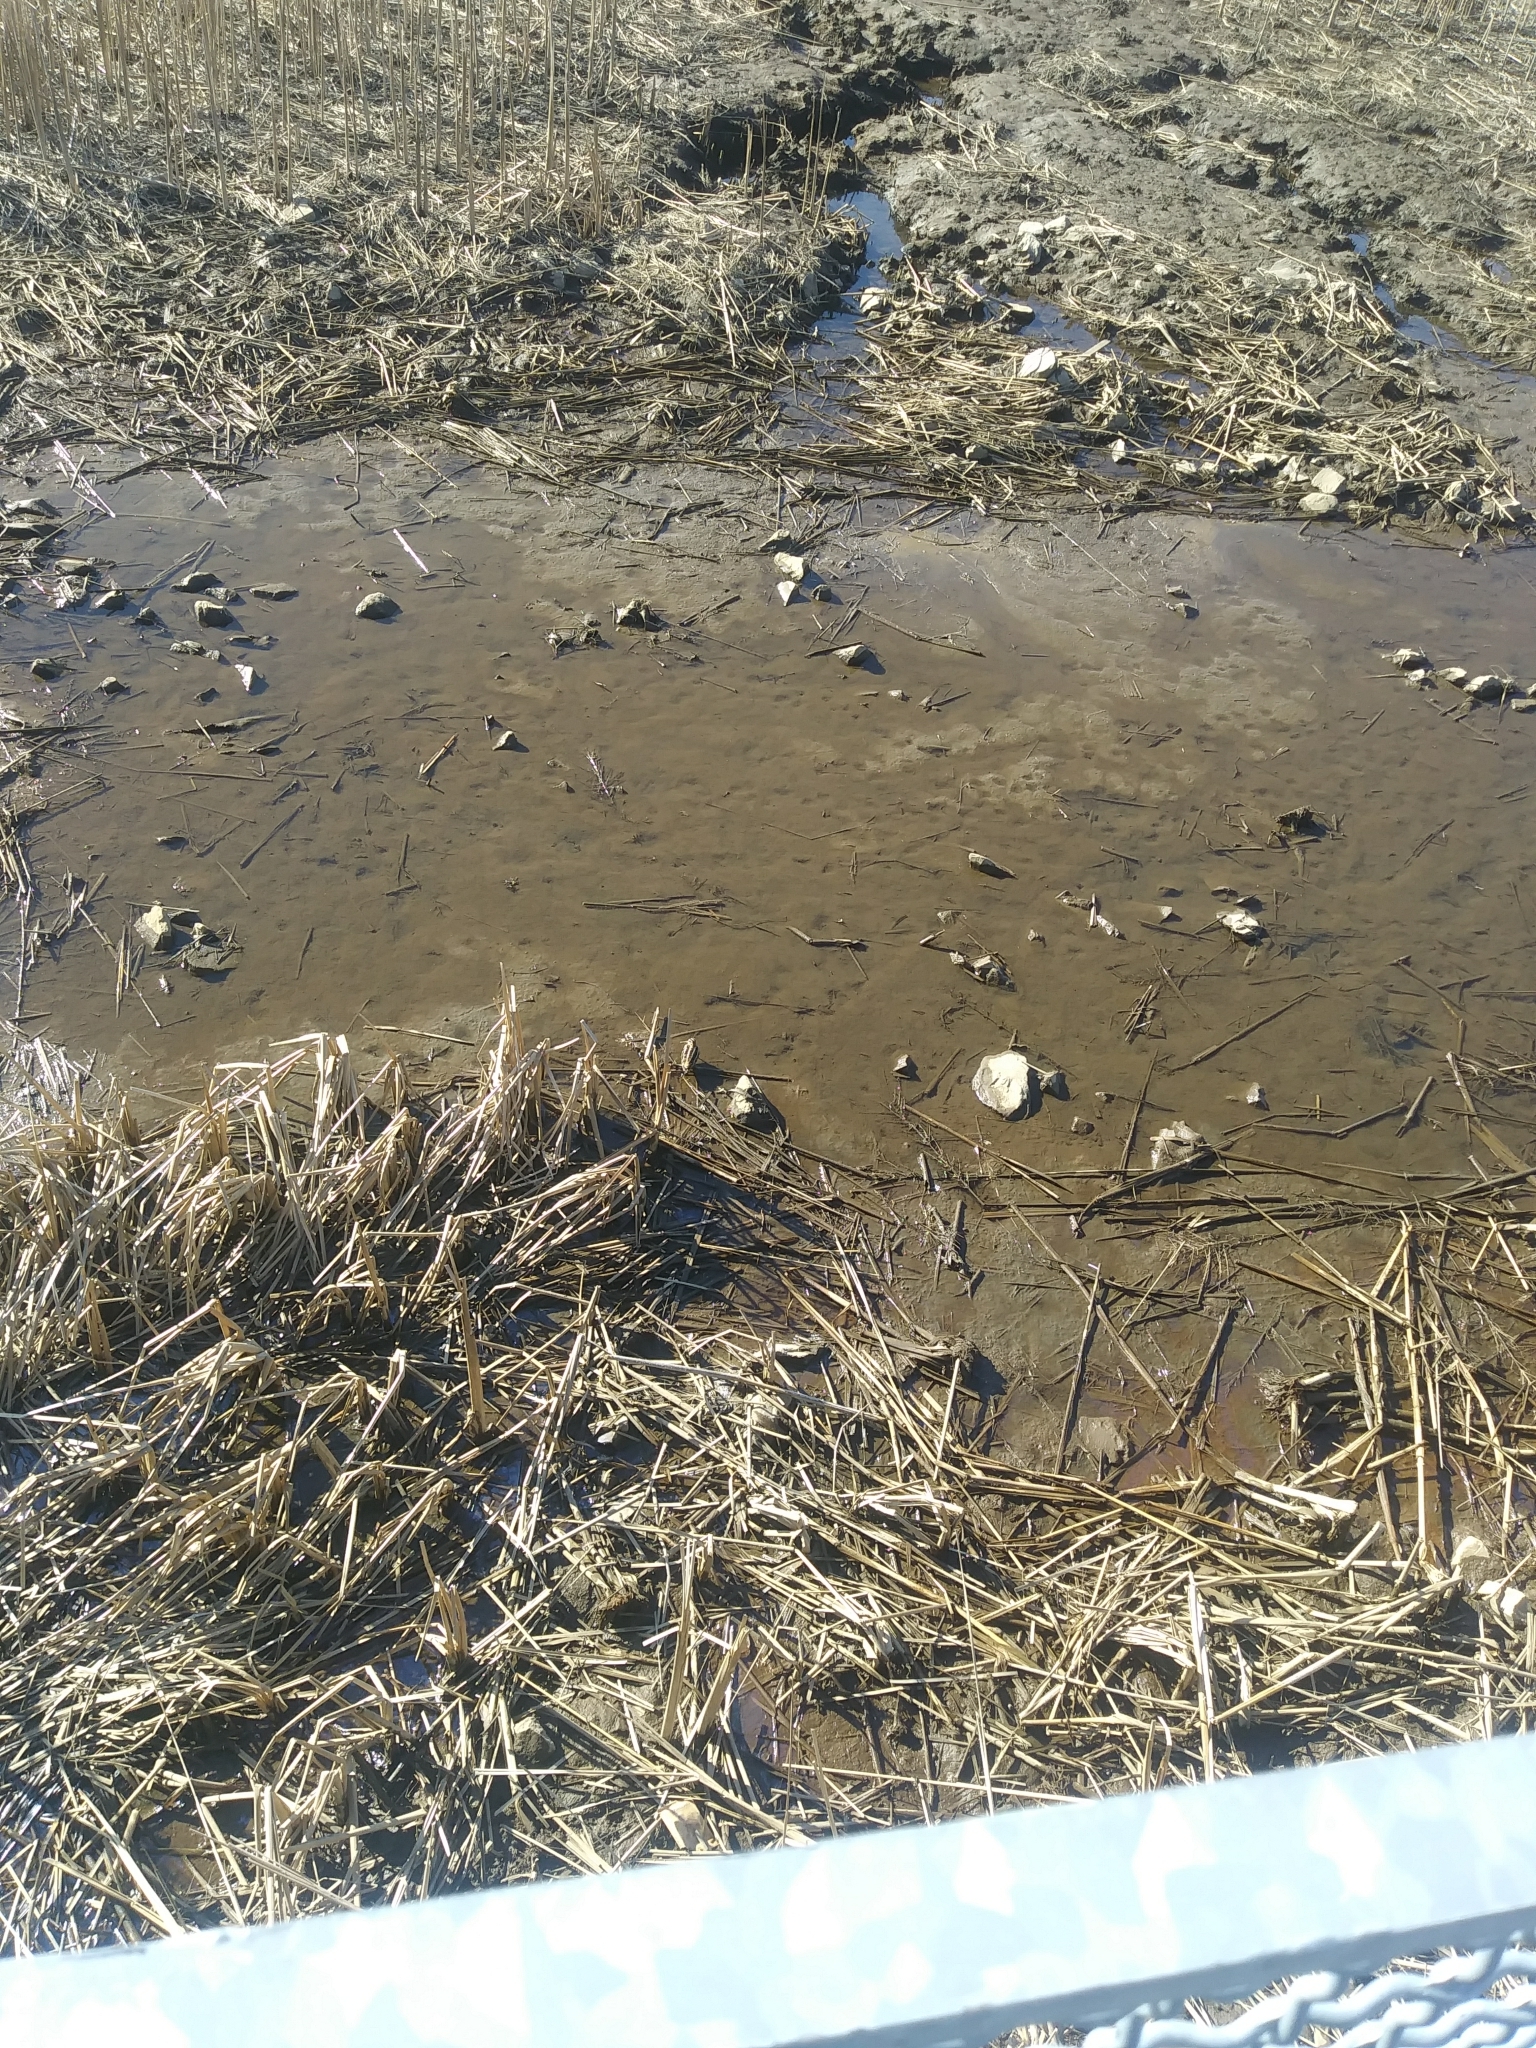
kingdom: Animalia
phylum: Chordata
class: Aves
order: Charadriiformes
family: Scolopacidae
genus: Gallinago
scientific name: Gallinago delicata
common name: Wilson's snipe
